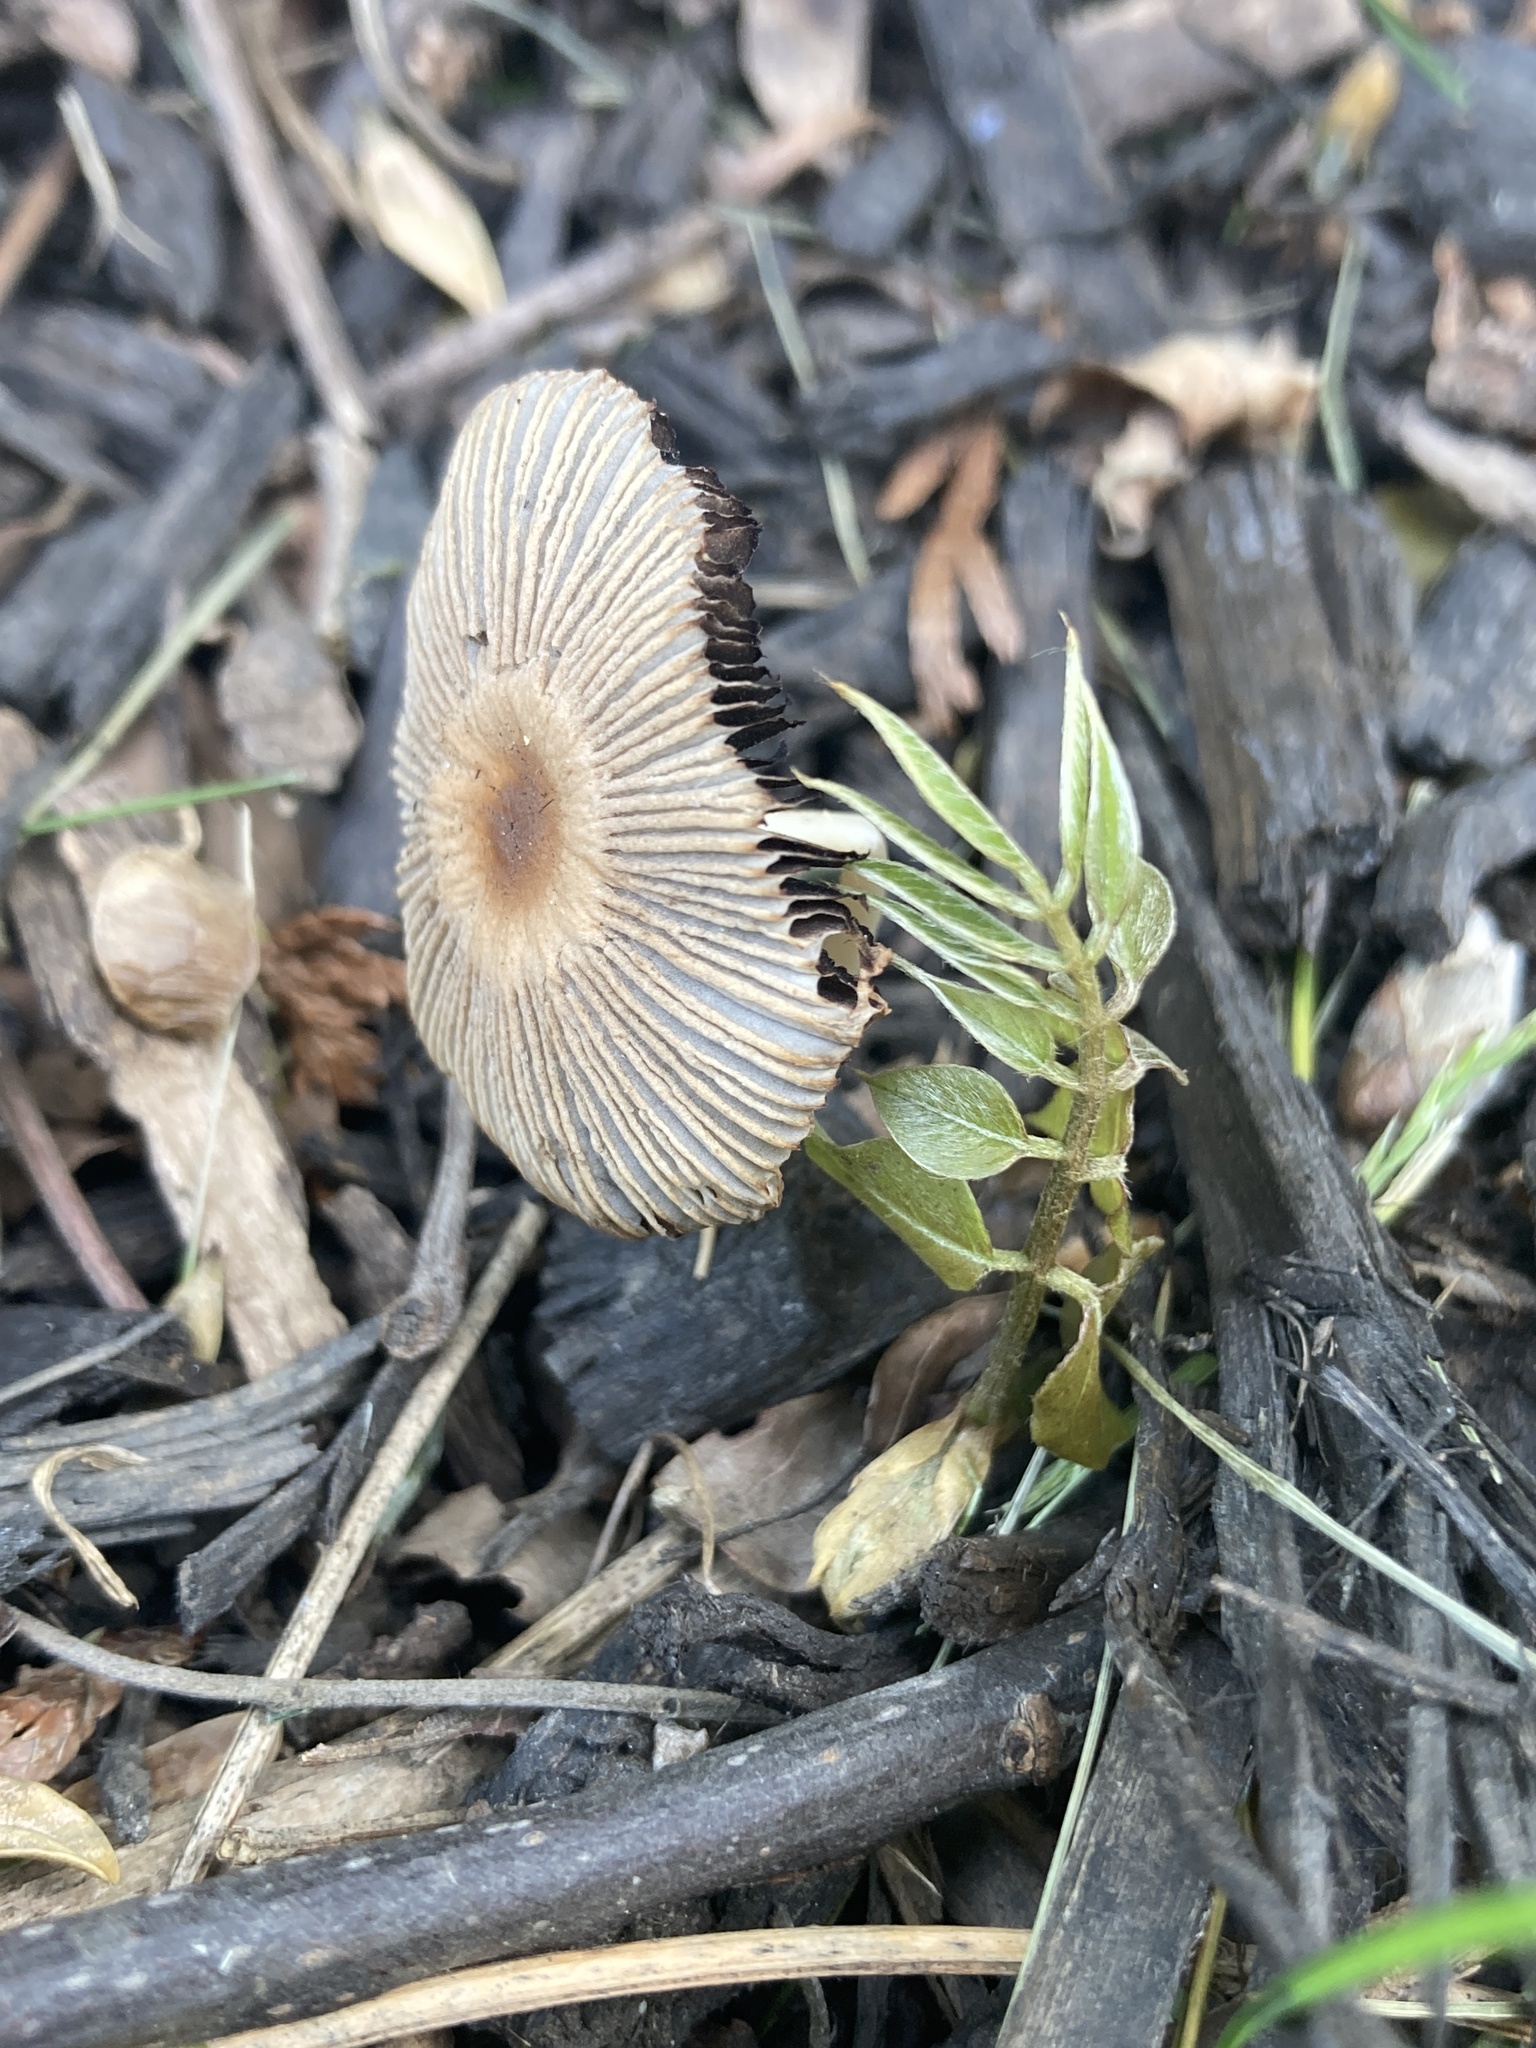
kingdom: Fungi
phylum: Basidiomycota
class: Agaricomycetes
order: Agaricales
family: Psathyrellaceae
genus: Parasola
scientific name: Parasola auricoma
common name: Goldenhaired inkcap
